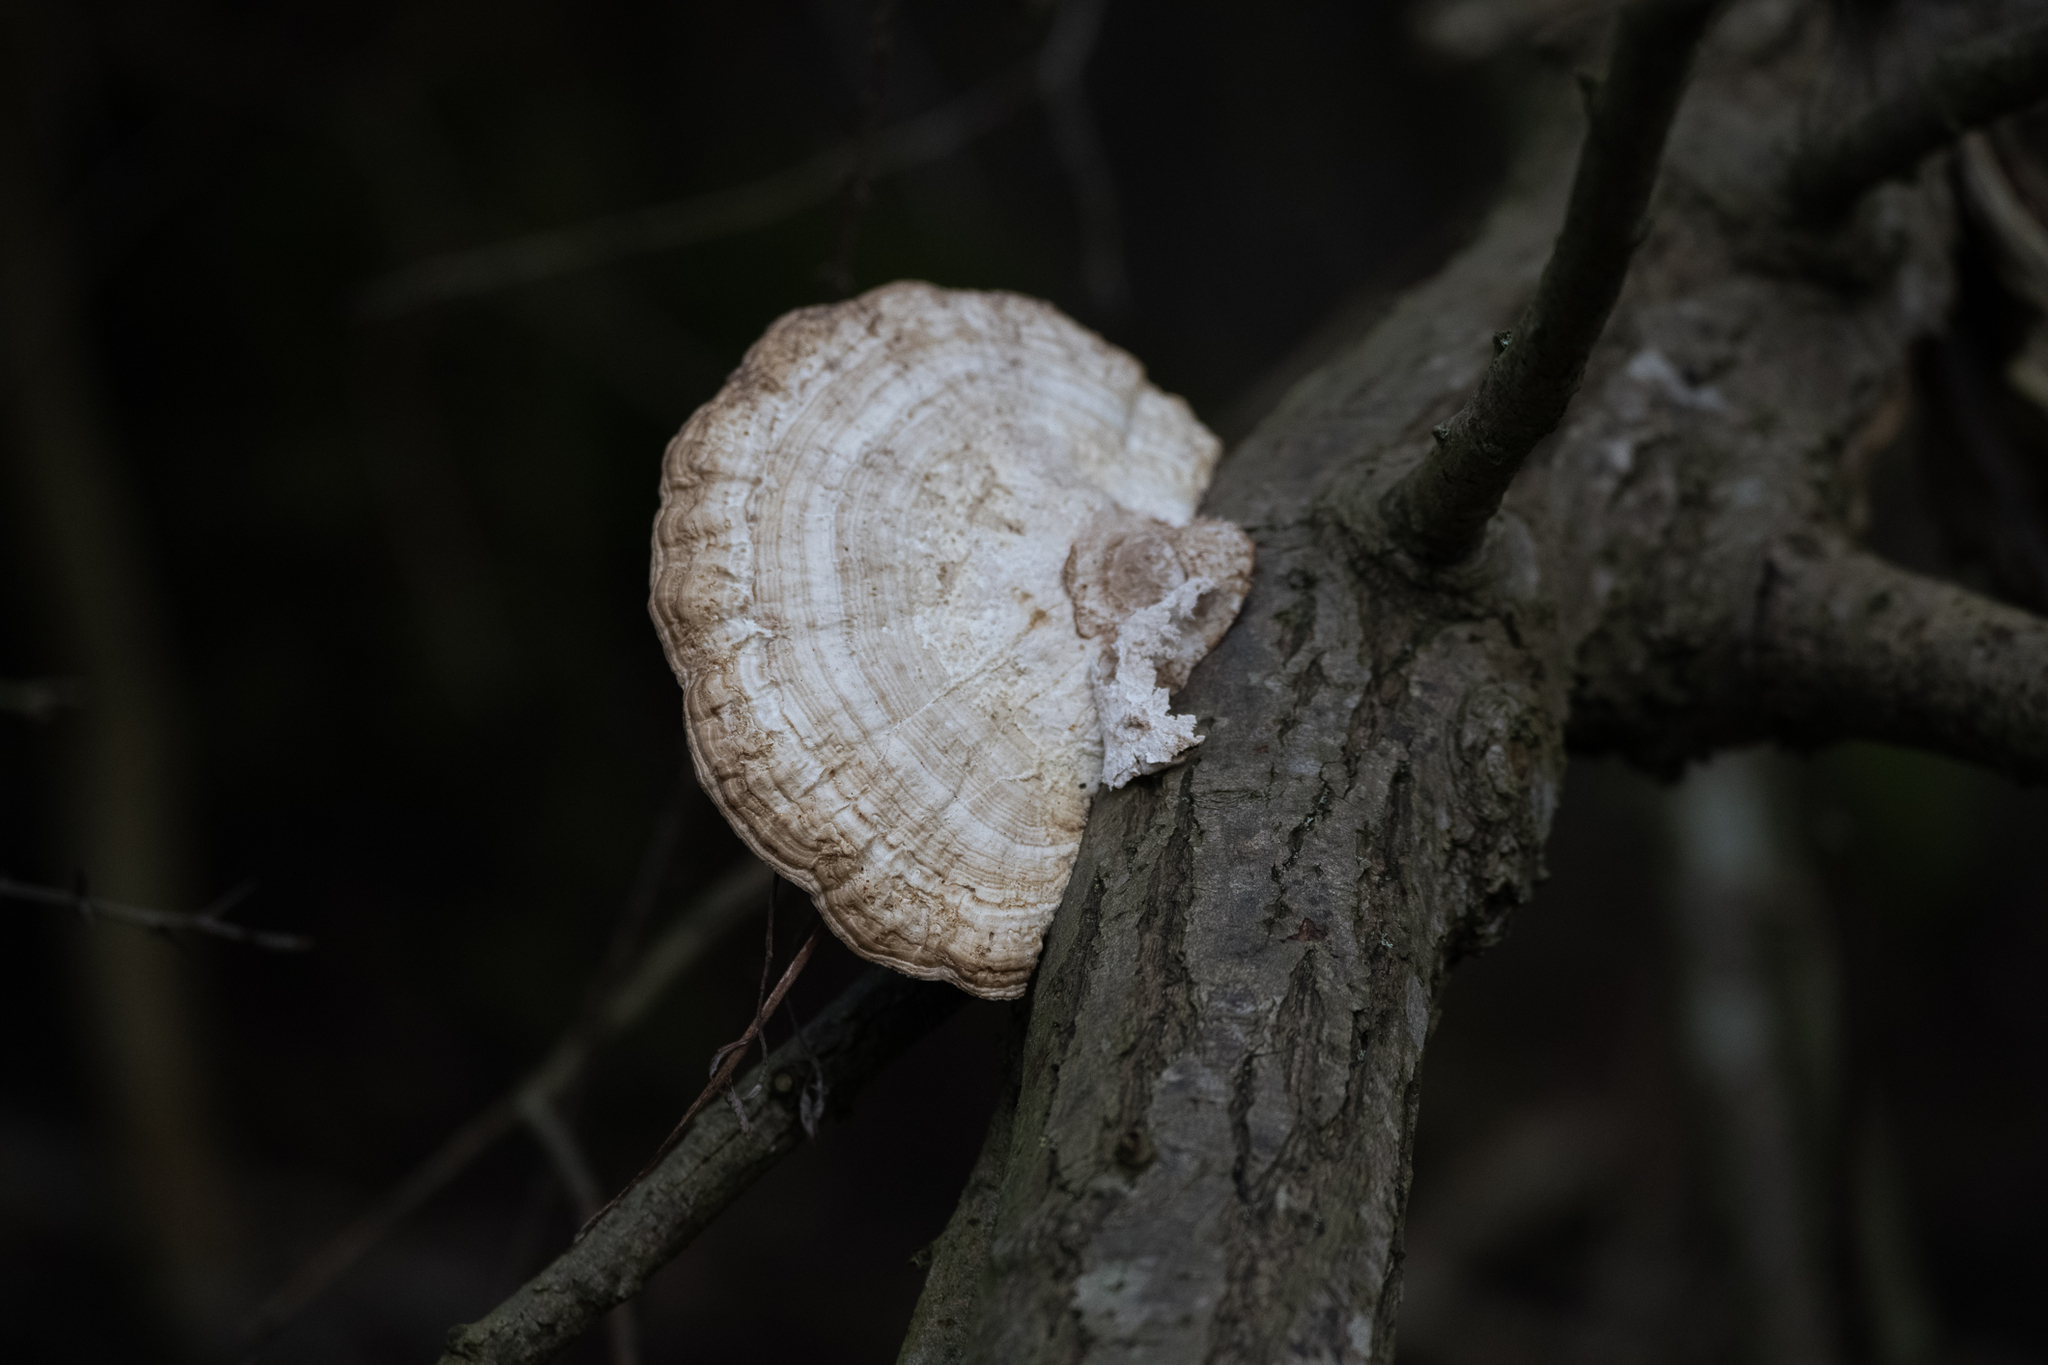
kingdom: Fungi
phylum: Basidiomycota
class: Agaricomycetes
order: Polyporales
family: Polyporaceae
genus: Daedaleopsis
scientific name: Daedaleopsis confragosa
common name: Blushing bracket
